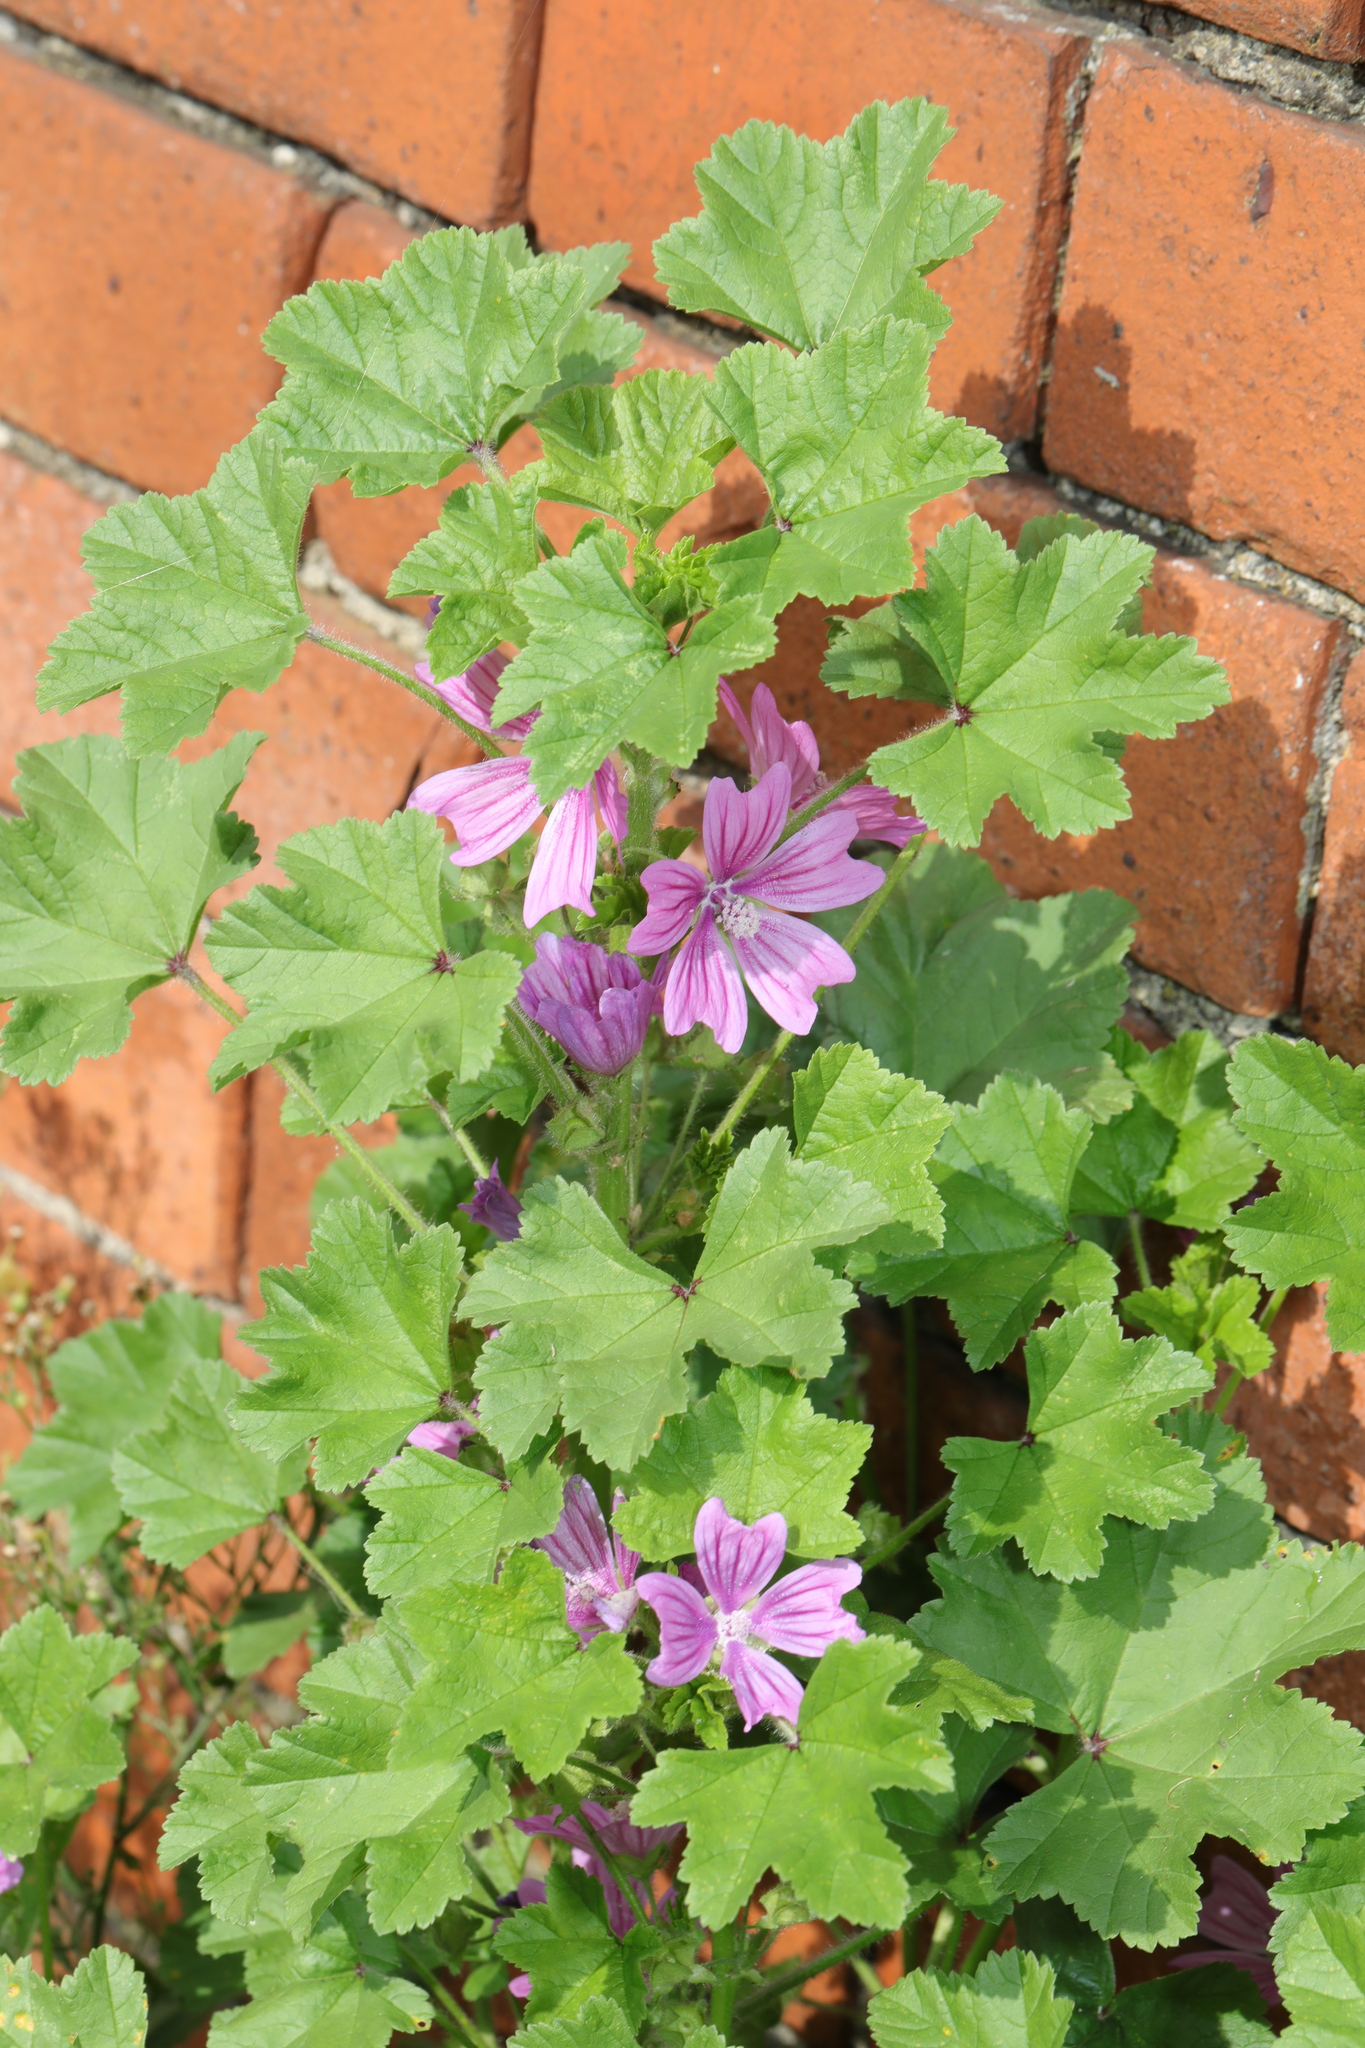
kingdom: Plantae
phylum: Tracheophyta
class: Magnoliopsida
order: Malvales
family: Malvaceae
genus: Malva
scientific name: Malva sylvestris
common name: Common mallow
